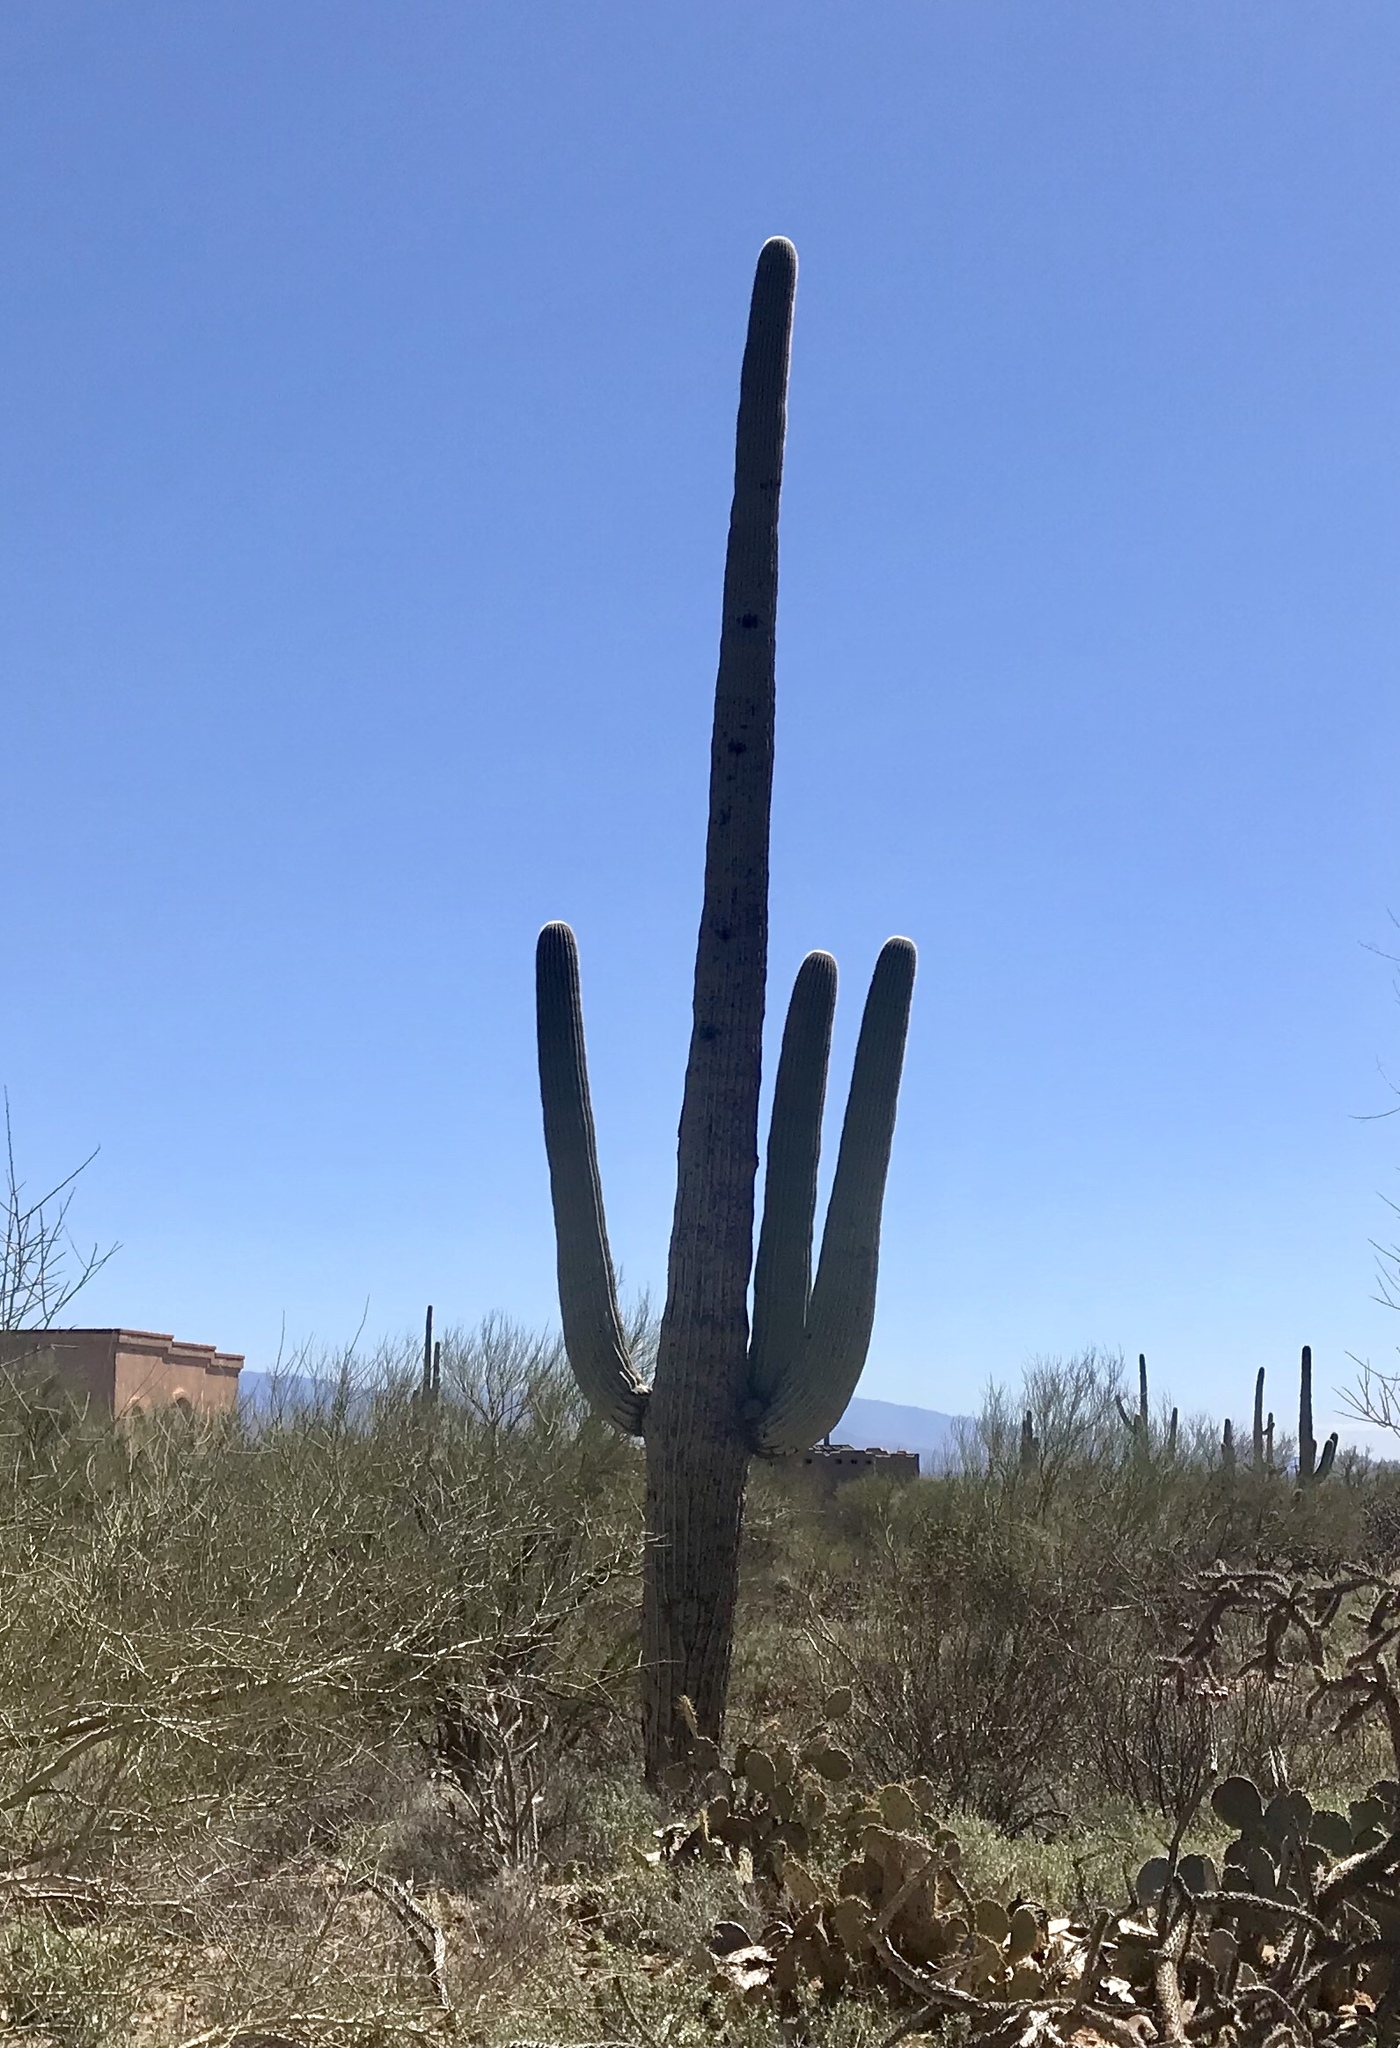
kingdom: Plantae
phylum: Tracheophyta
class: Magnoliopsida
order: Caryophyllales
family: Cactaceae
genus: Carnegiea
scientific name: Carnegiea gigantea
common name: Saguaro
